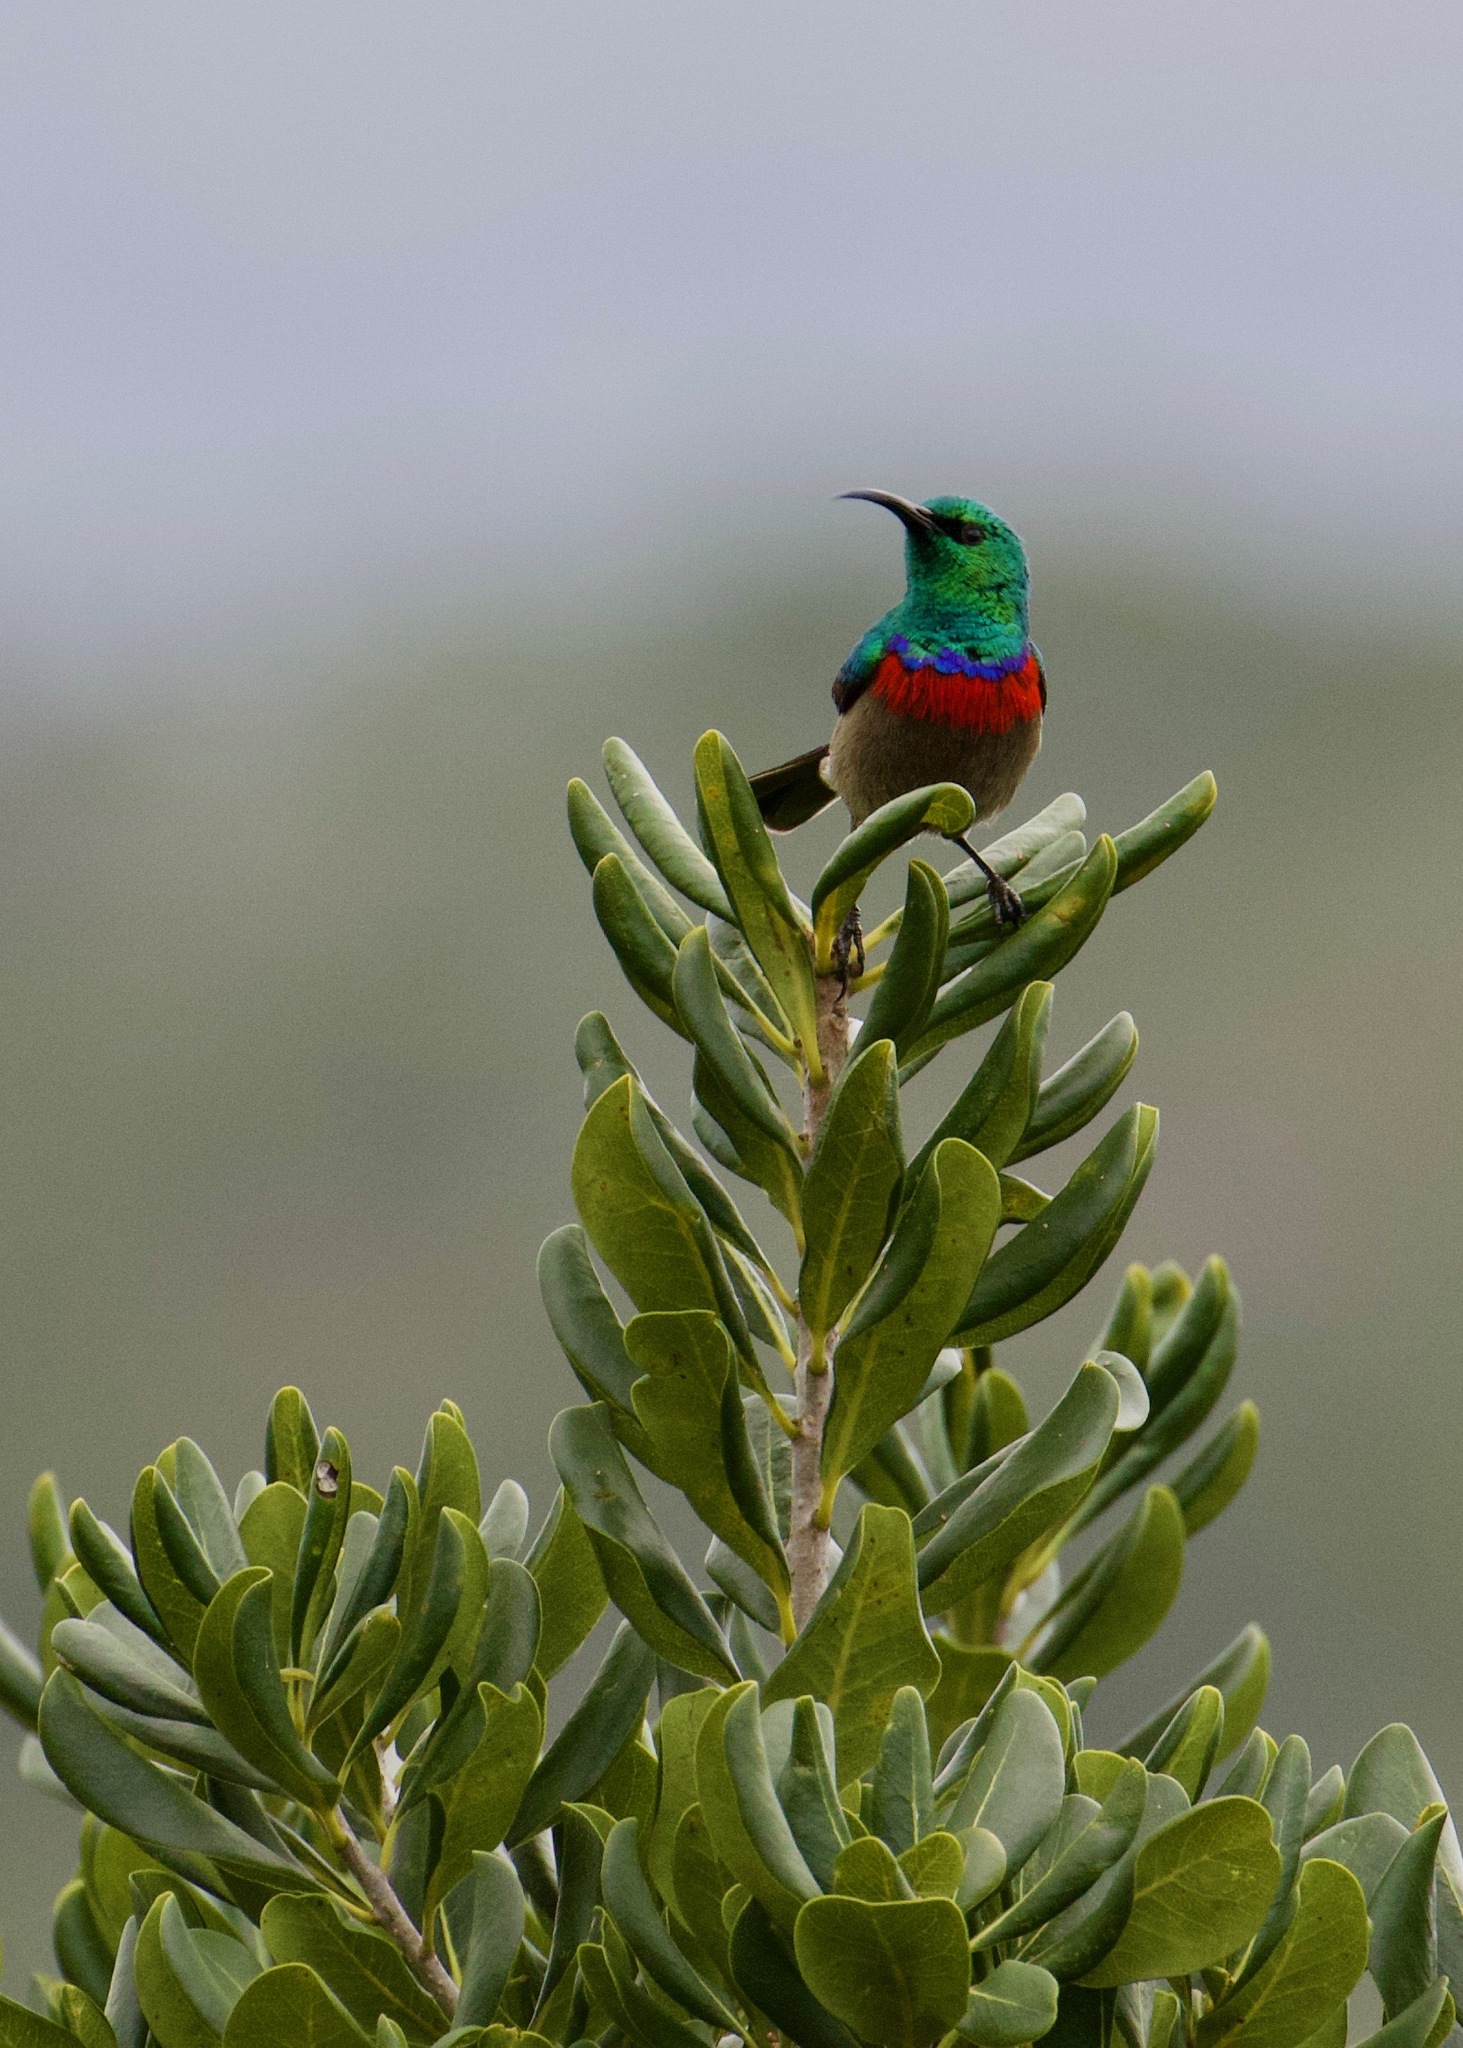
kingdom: Animalia
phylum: Chordata
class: Aves
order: Passeriformes
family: Nectariniidae
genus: Cinnyris
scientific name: Cinnyris chalybeus
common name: Southern double-collared sunbird
